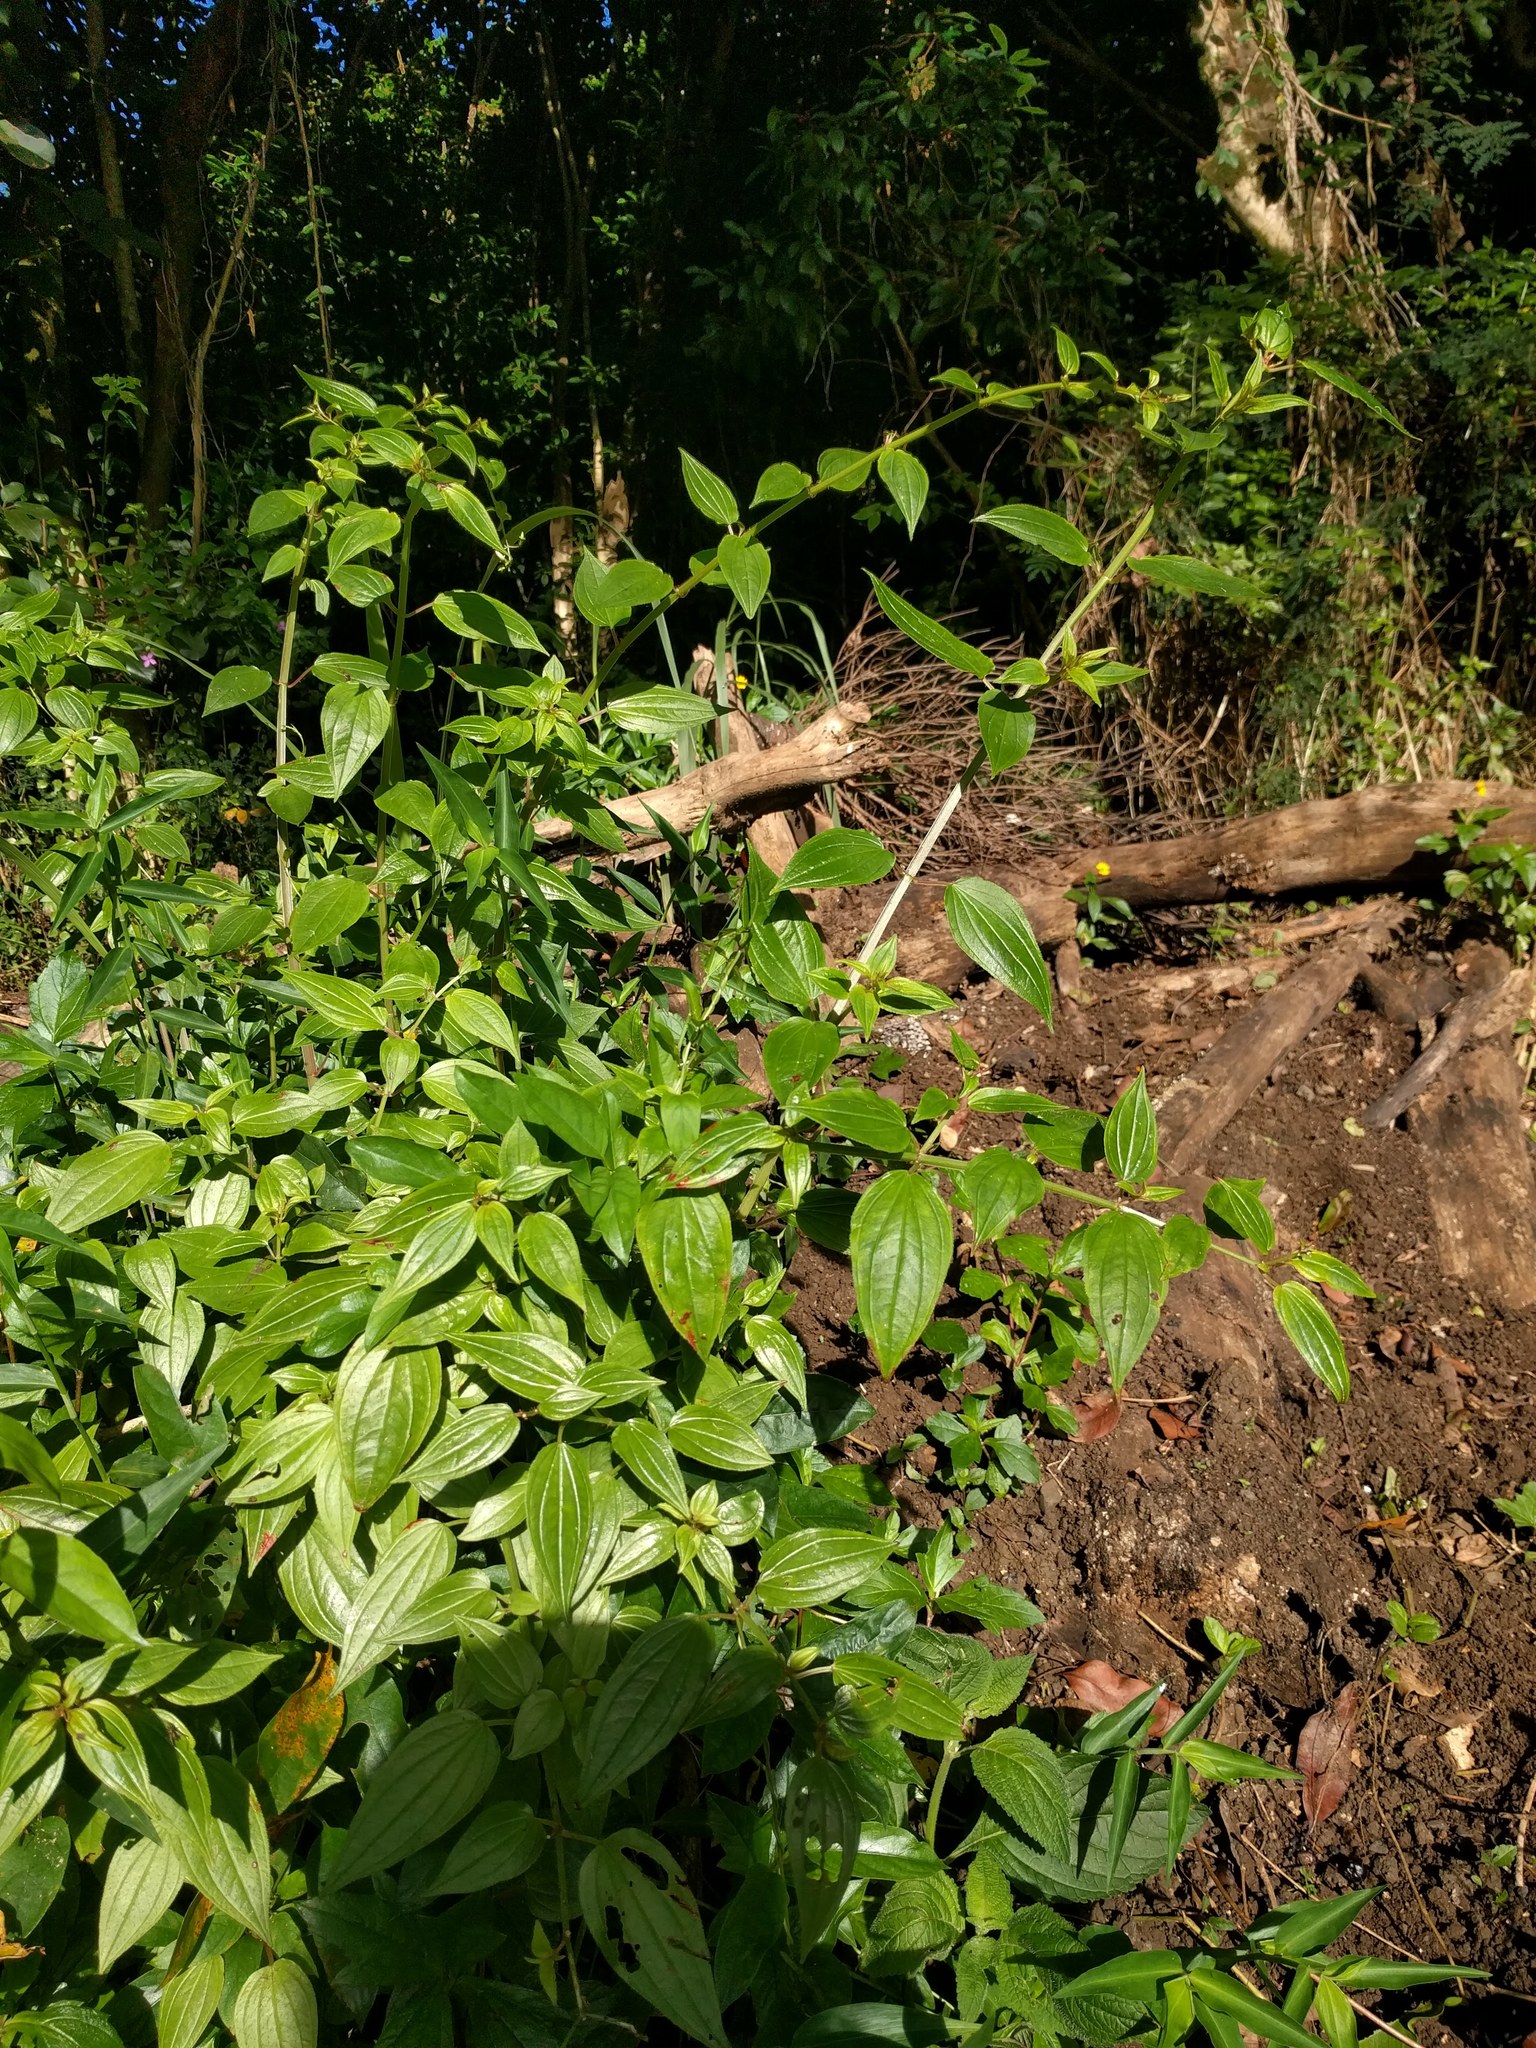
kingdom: Plantae
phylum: Tracheophyta
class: Magnoliopsida
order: Myrtales
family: Melastomataceae
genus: Arthrostemma
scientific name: Arthrostemma ciliatum
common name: Everblooming eavender
